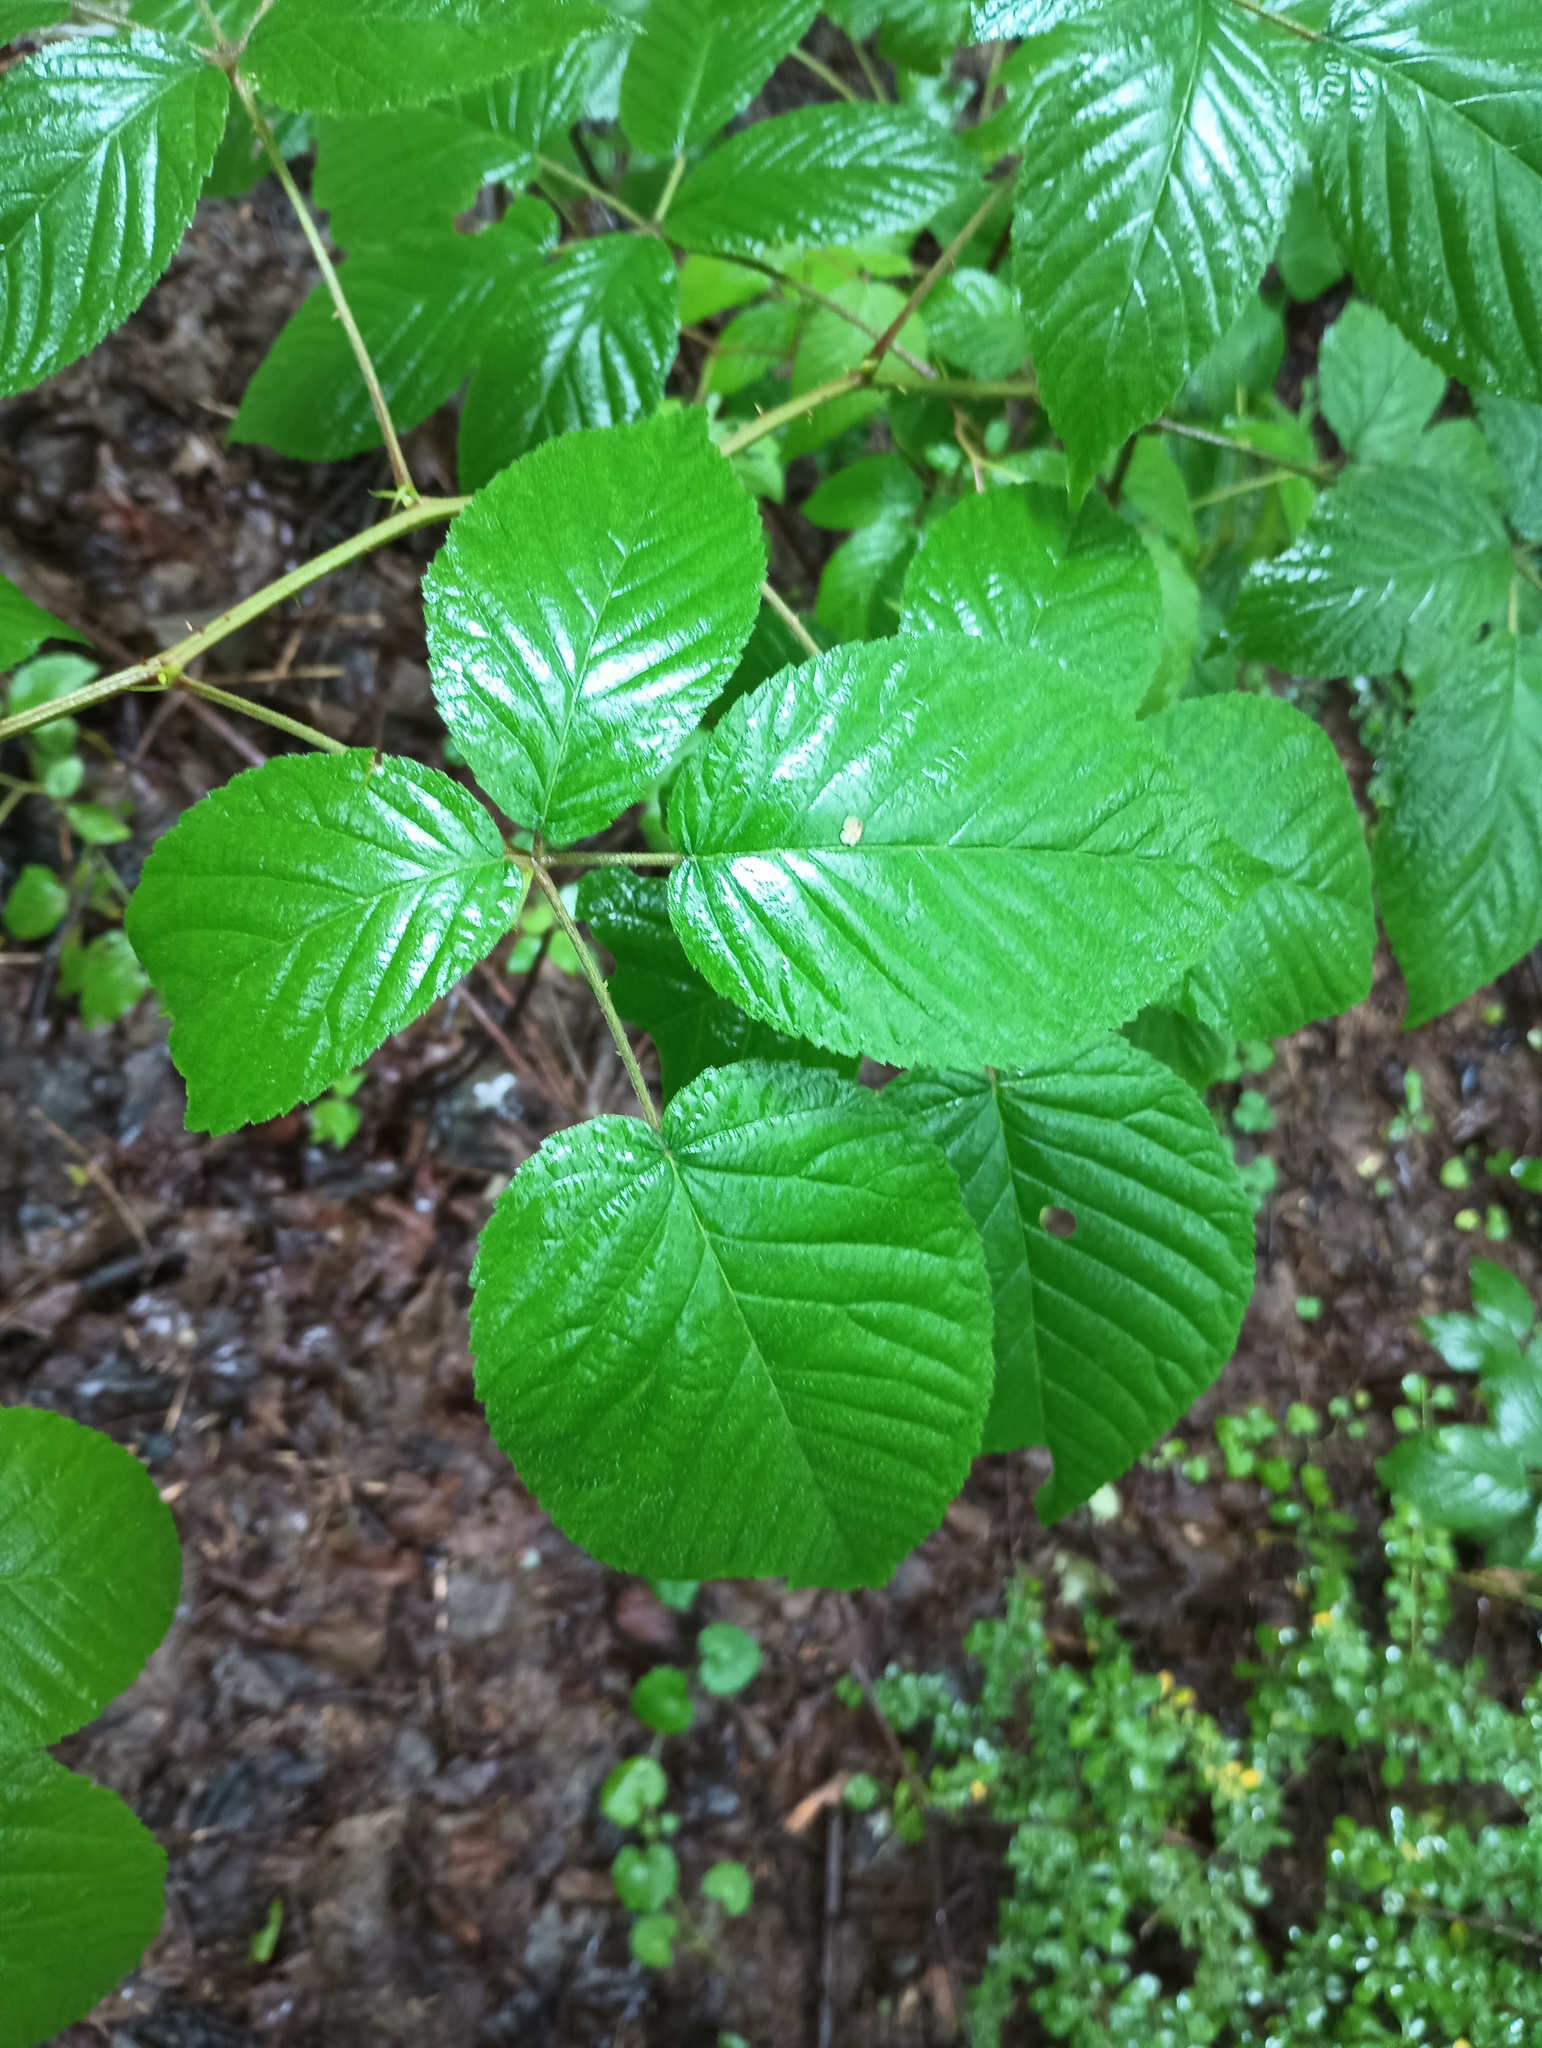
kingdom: Plantae
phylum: Tracheophyta
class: Magnoliopsida
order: Rosales
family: Rosaceae
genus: Rubus
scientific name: Rubus allegheniensis
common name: Allegheny blackberry
